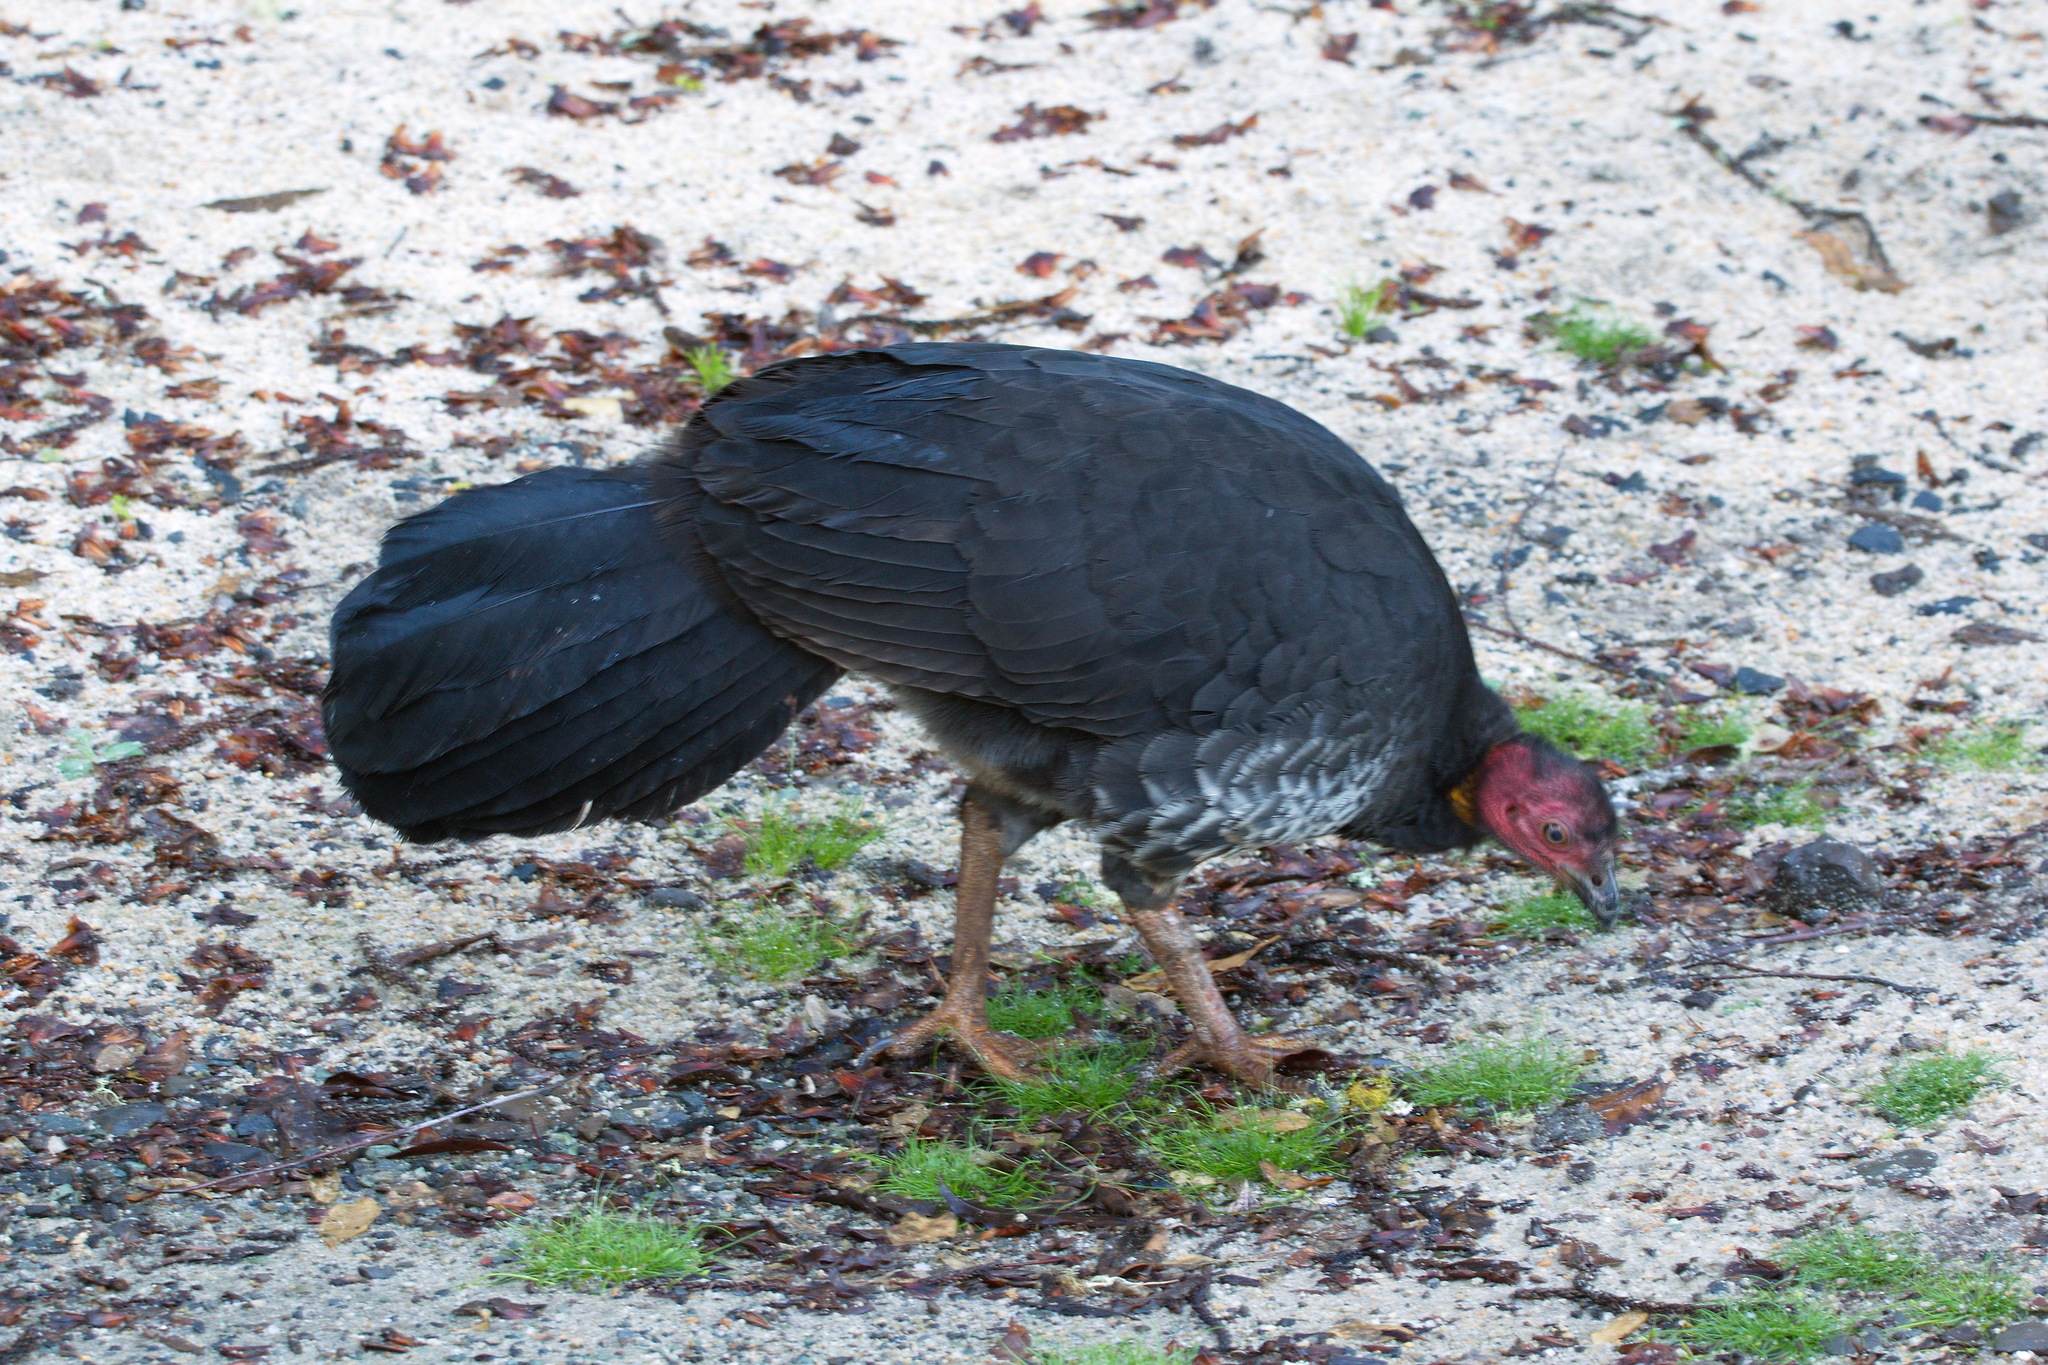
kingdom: Animalia
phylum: Chordata
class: Aves
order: Galliformes
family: Megapodiidae
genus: Alectura
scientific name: Alectura lathami
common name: Australian brushturkey
